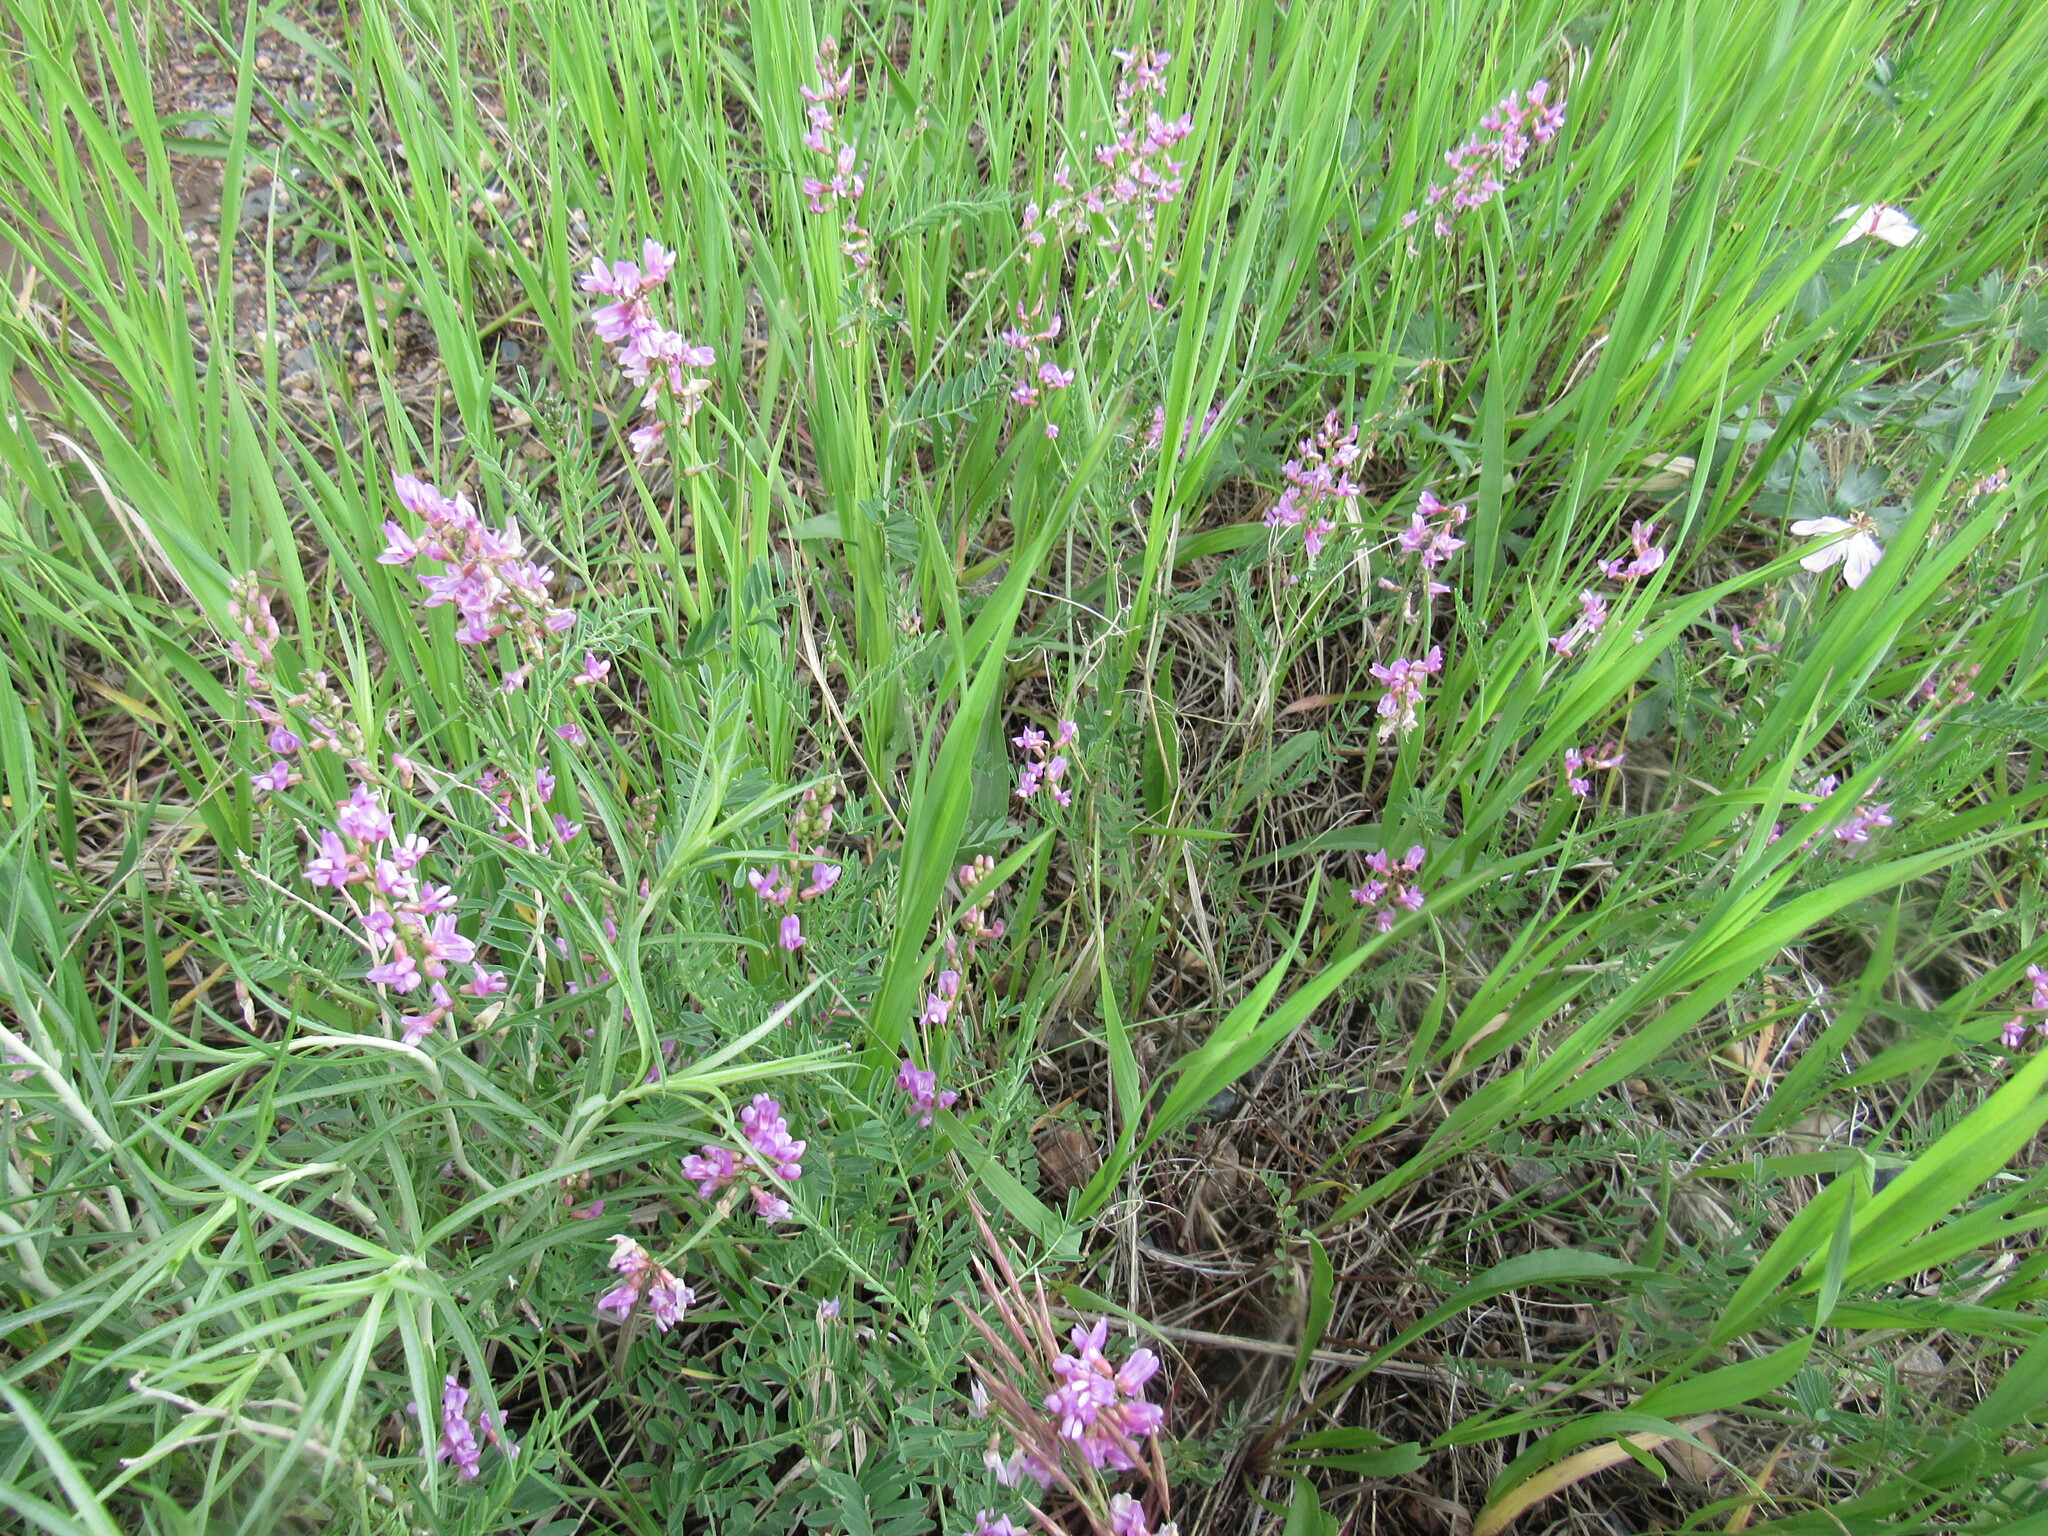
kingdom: Plantae
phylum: Tracheophyta
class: Magnoliopsida
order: Fabales
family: Fabaceae
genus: Astragalus
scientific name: Astragalus flexuosus
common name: Pliant milk-vetch
